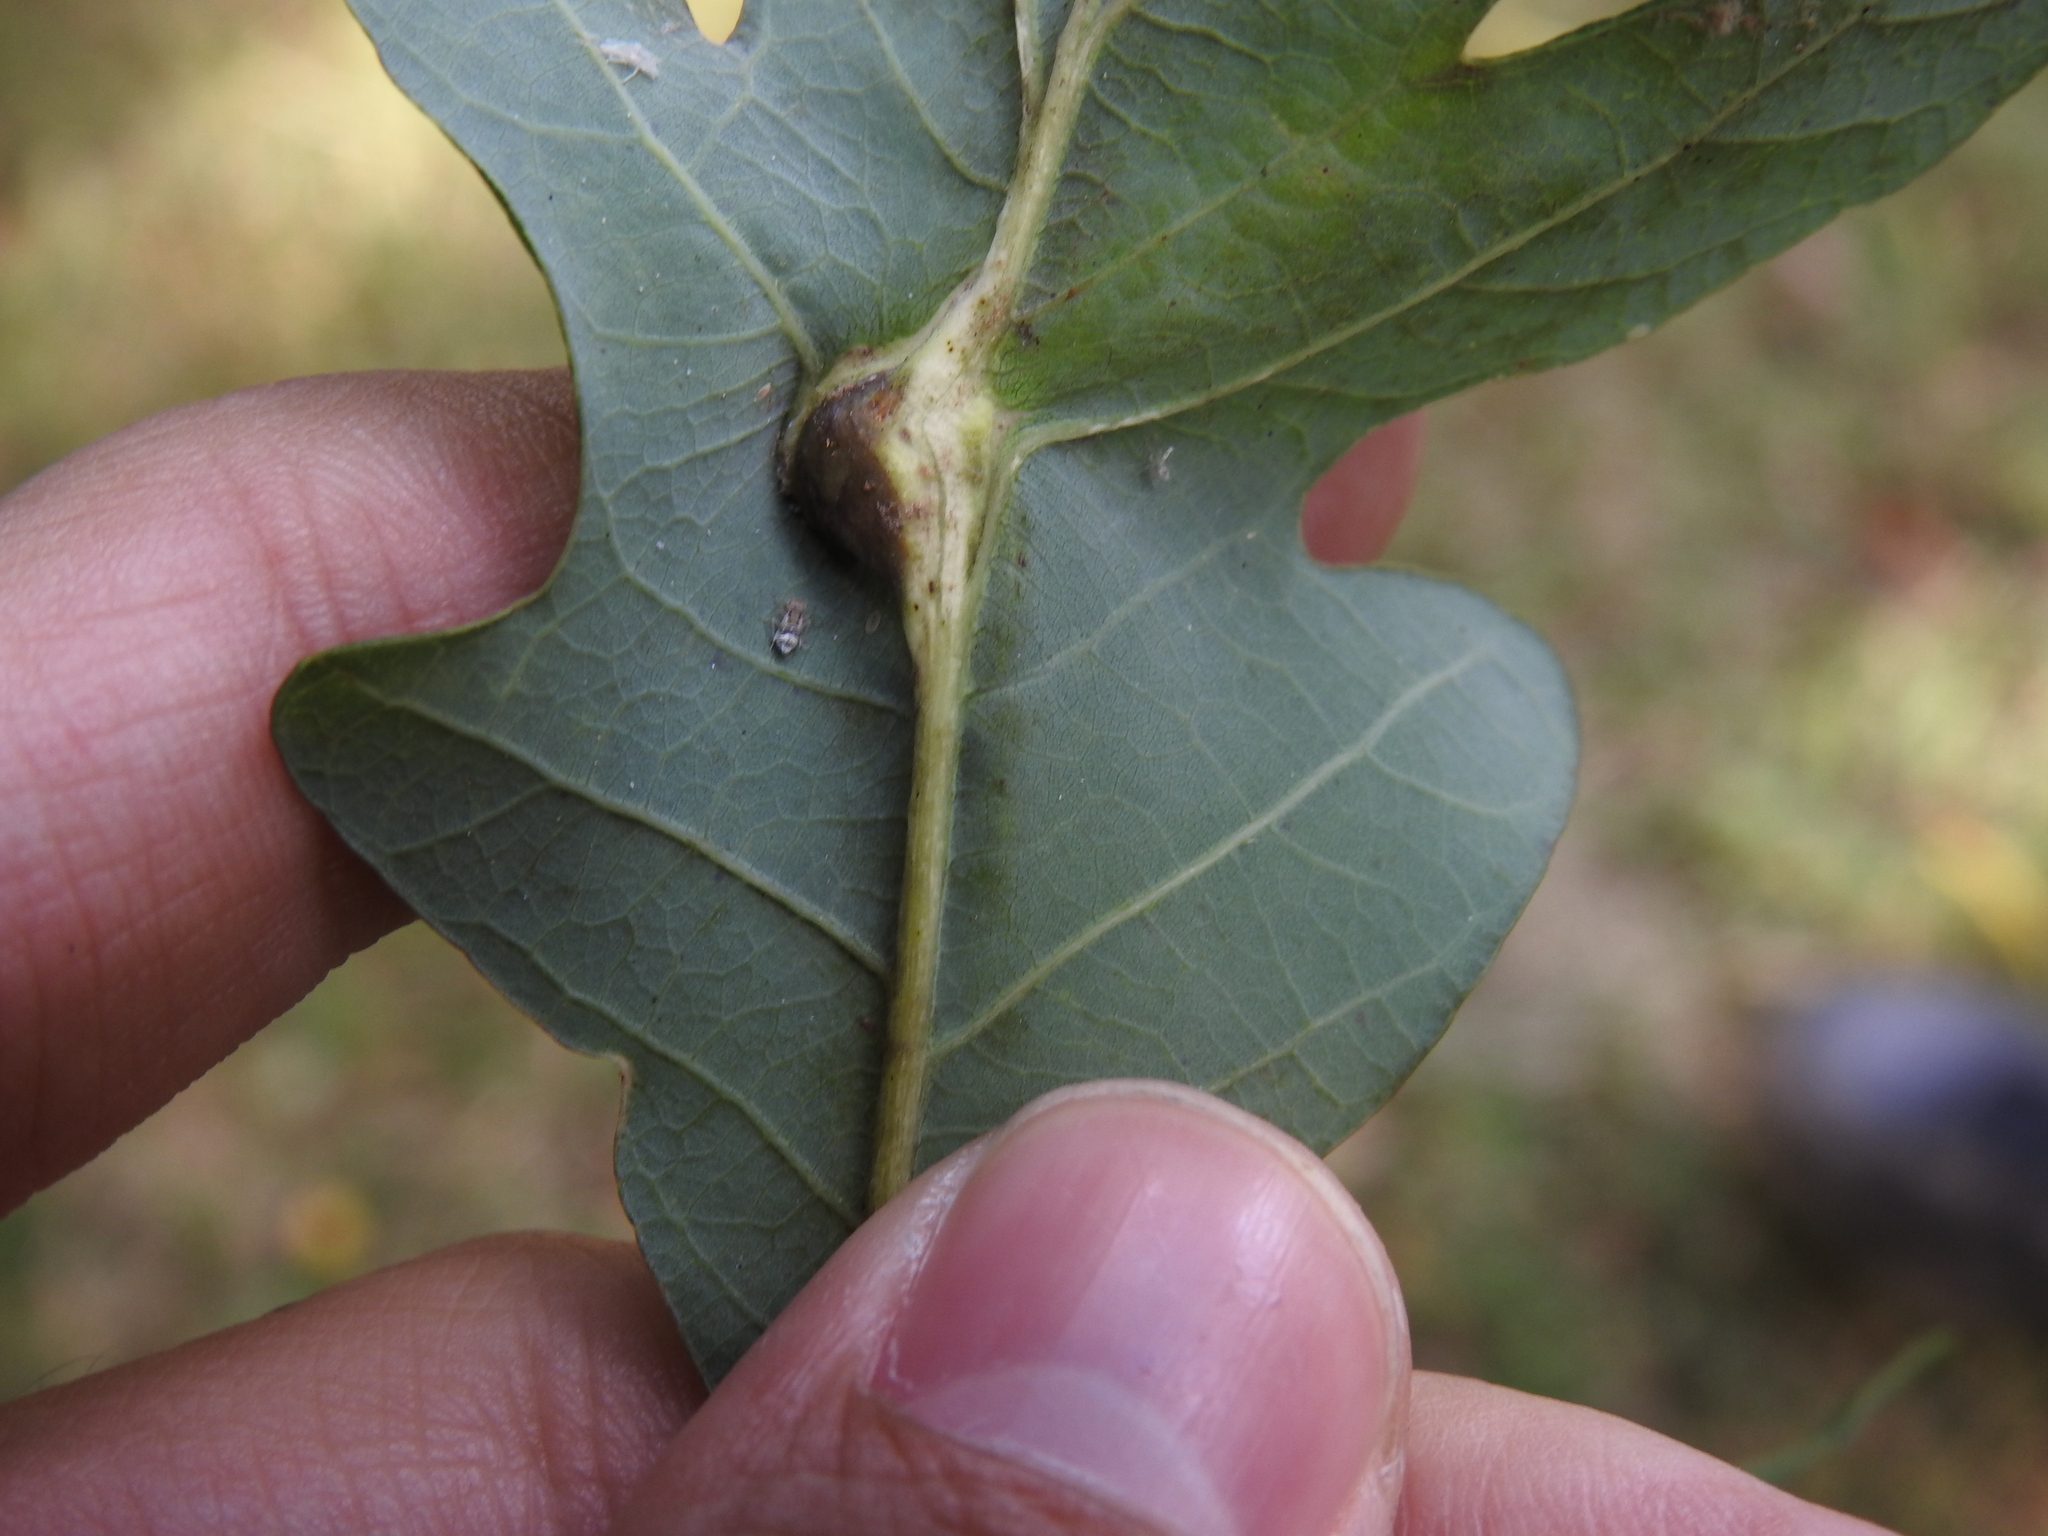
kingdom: Animalia
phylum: Arthropoda
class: Insecta
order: Hymenoptera
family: Cynipidae
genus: Andricus
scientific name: Andricus
